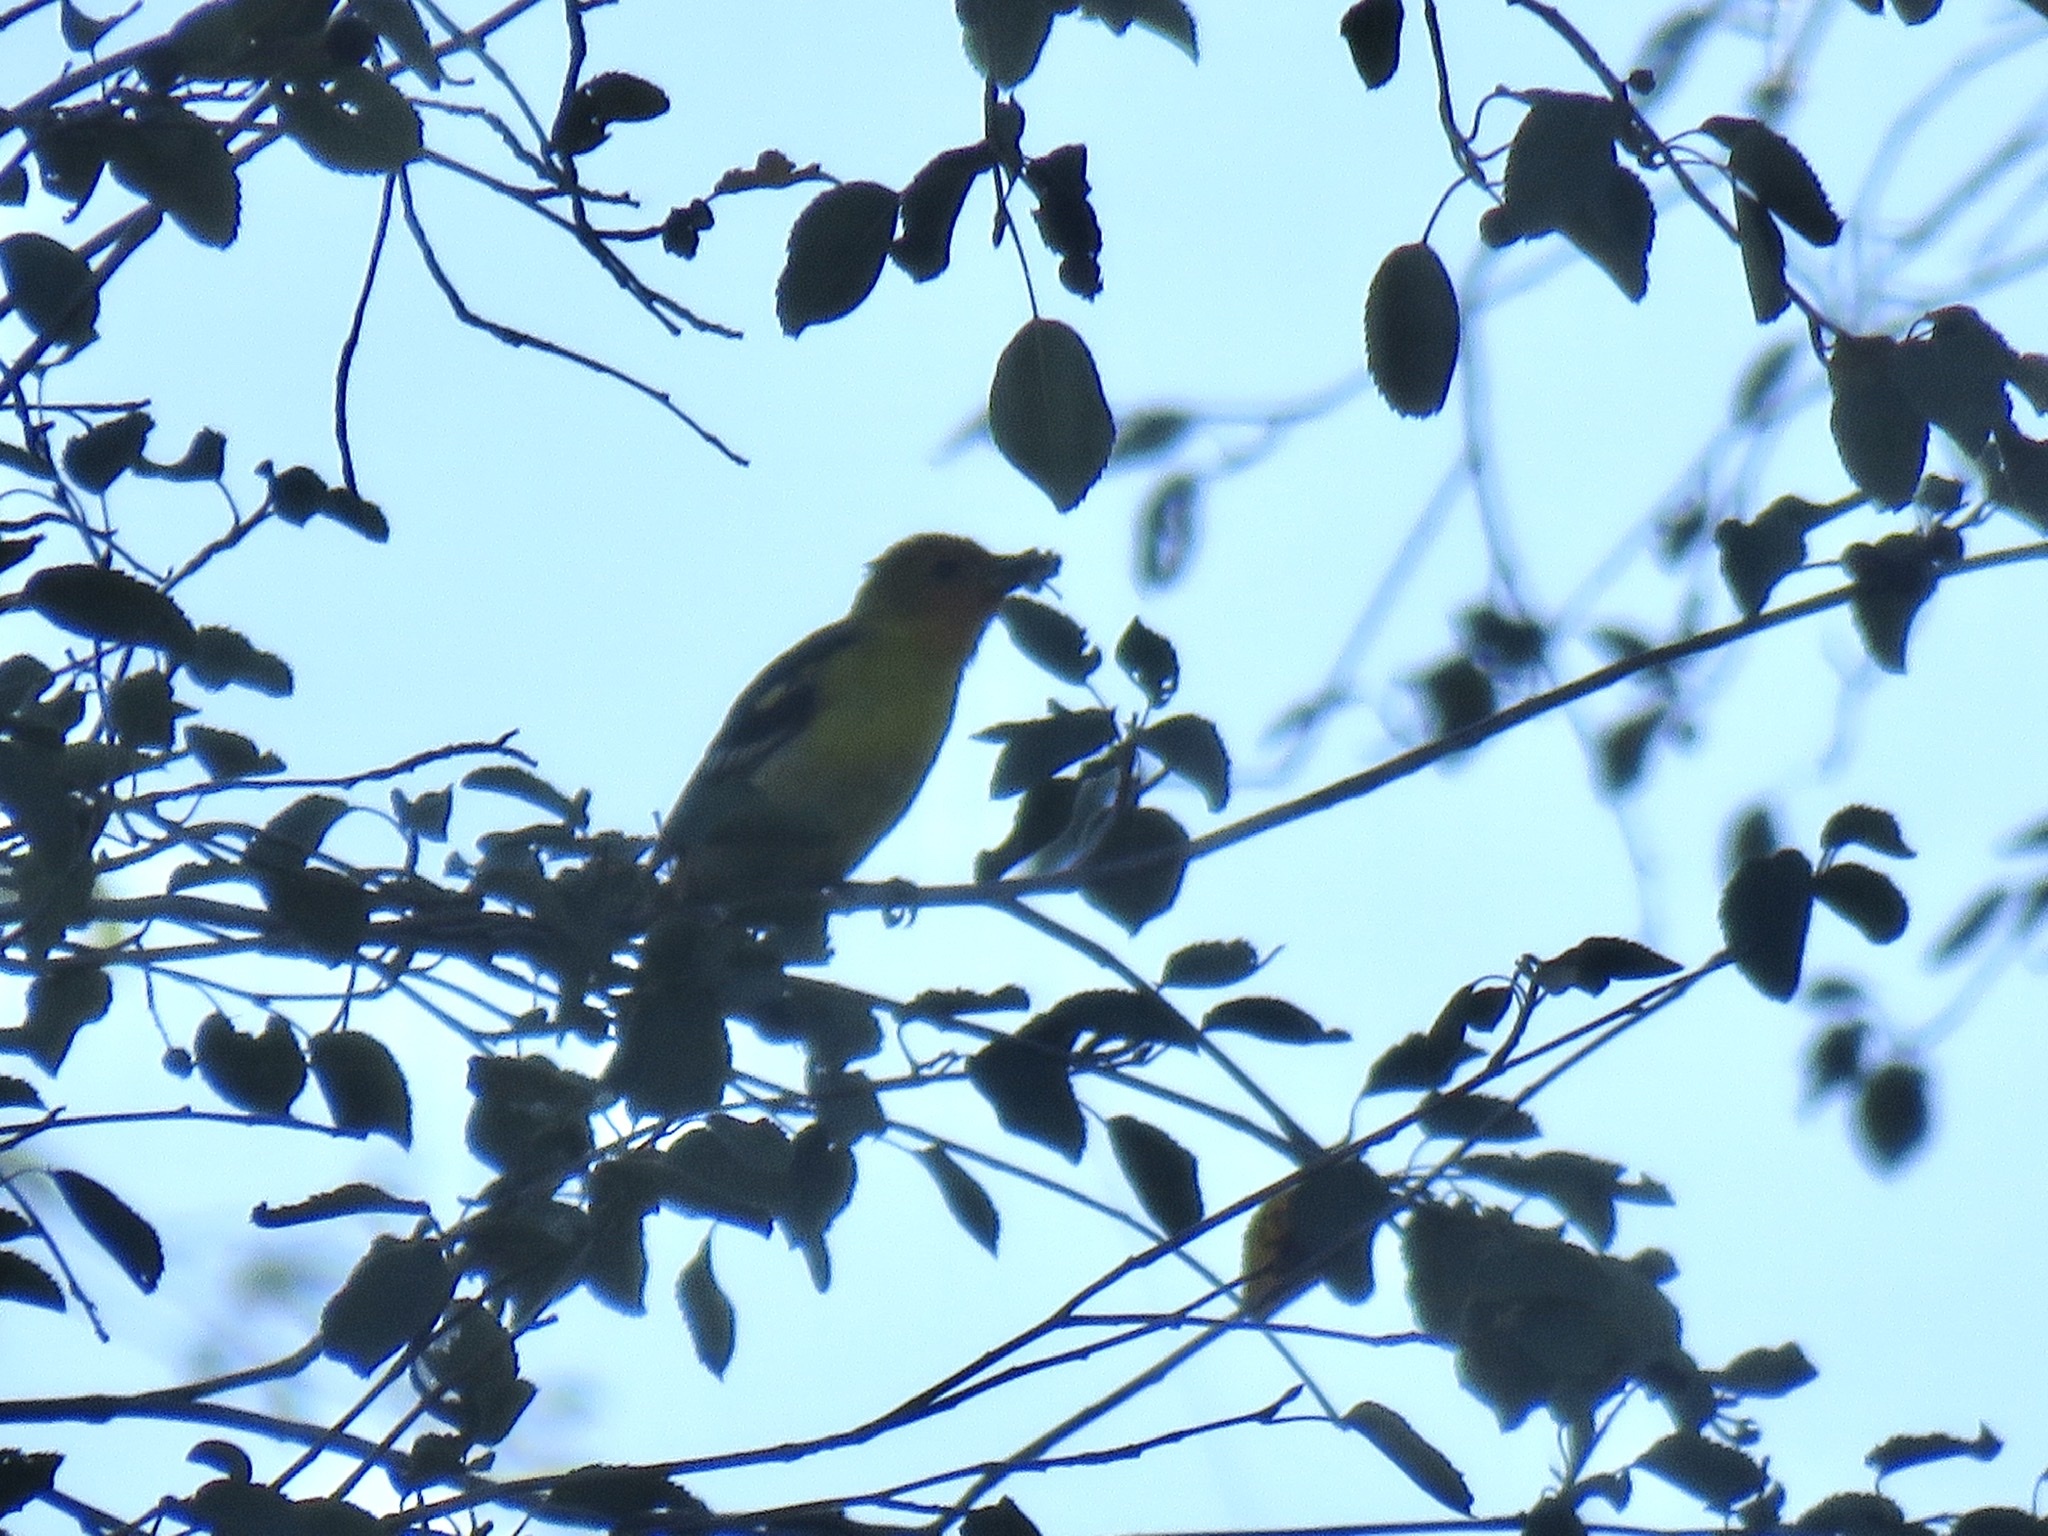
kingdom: Animalia
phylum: Chordata
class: Aves
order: Passeriformes
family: Cardinalidae
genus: Piranga
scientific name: Piranga ludoviciana
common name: Western tanager
